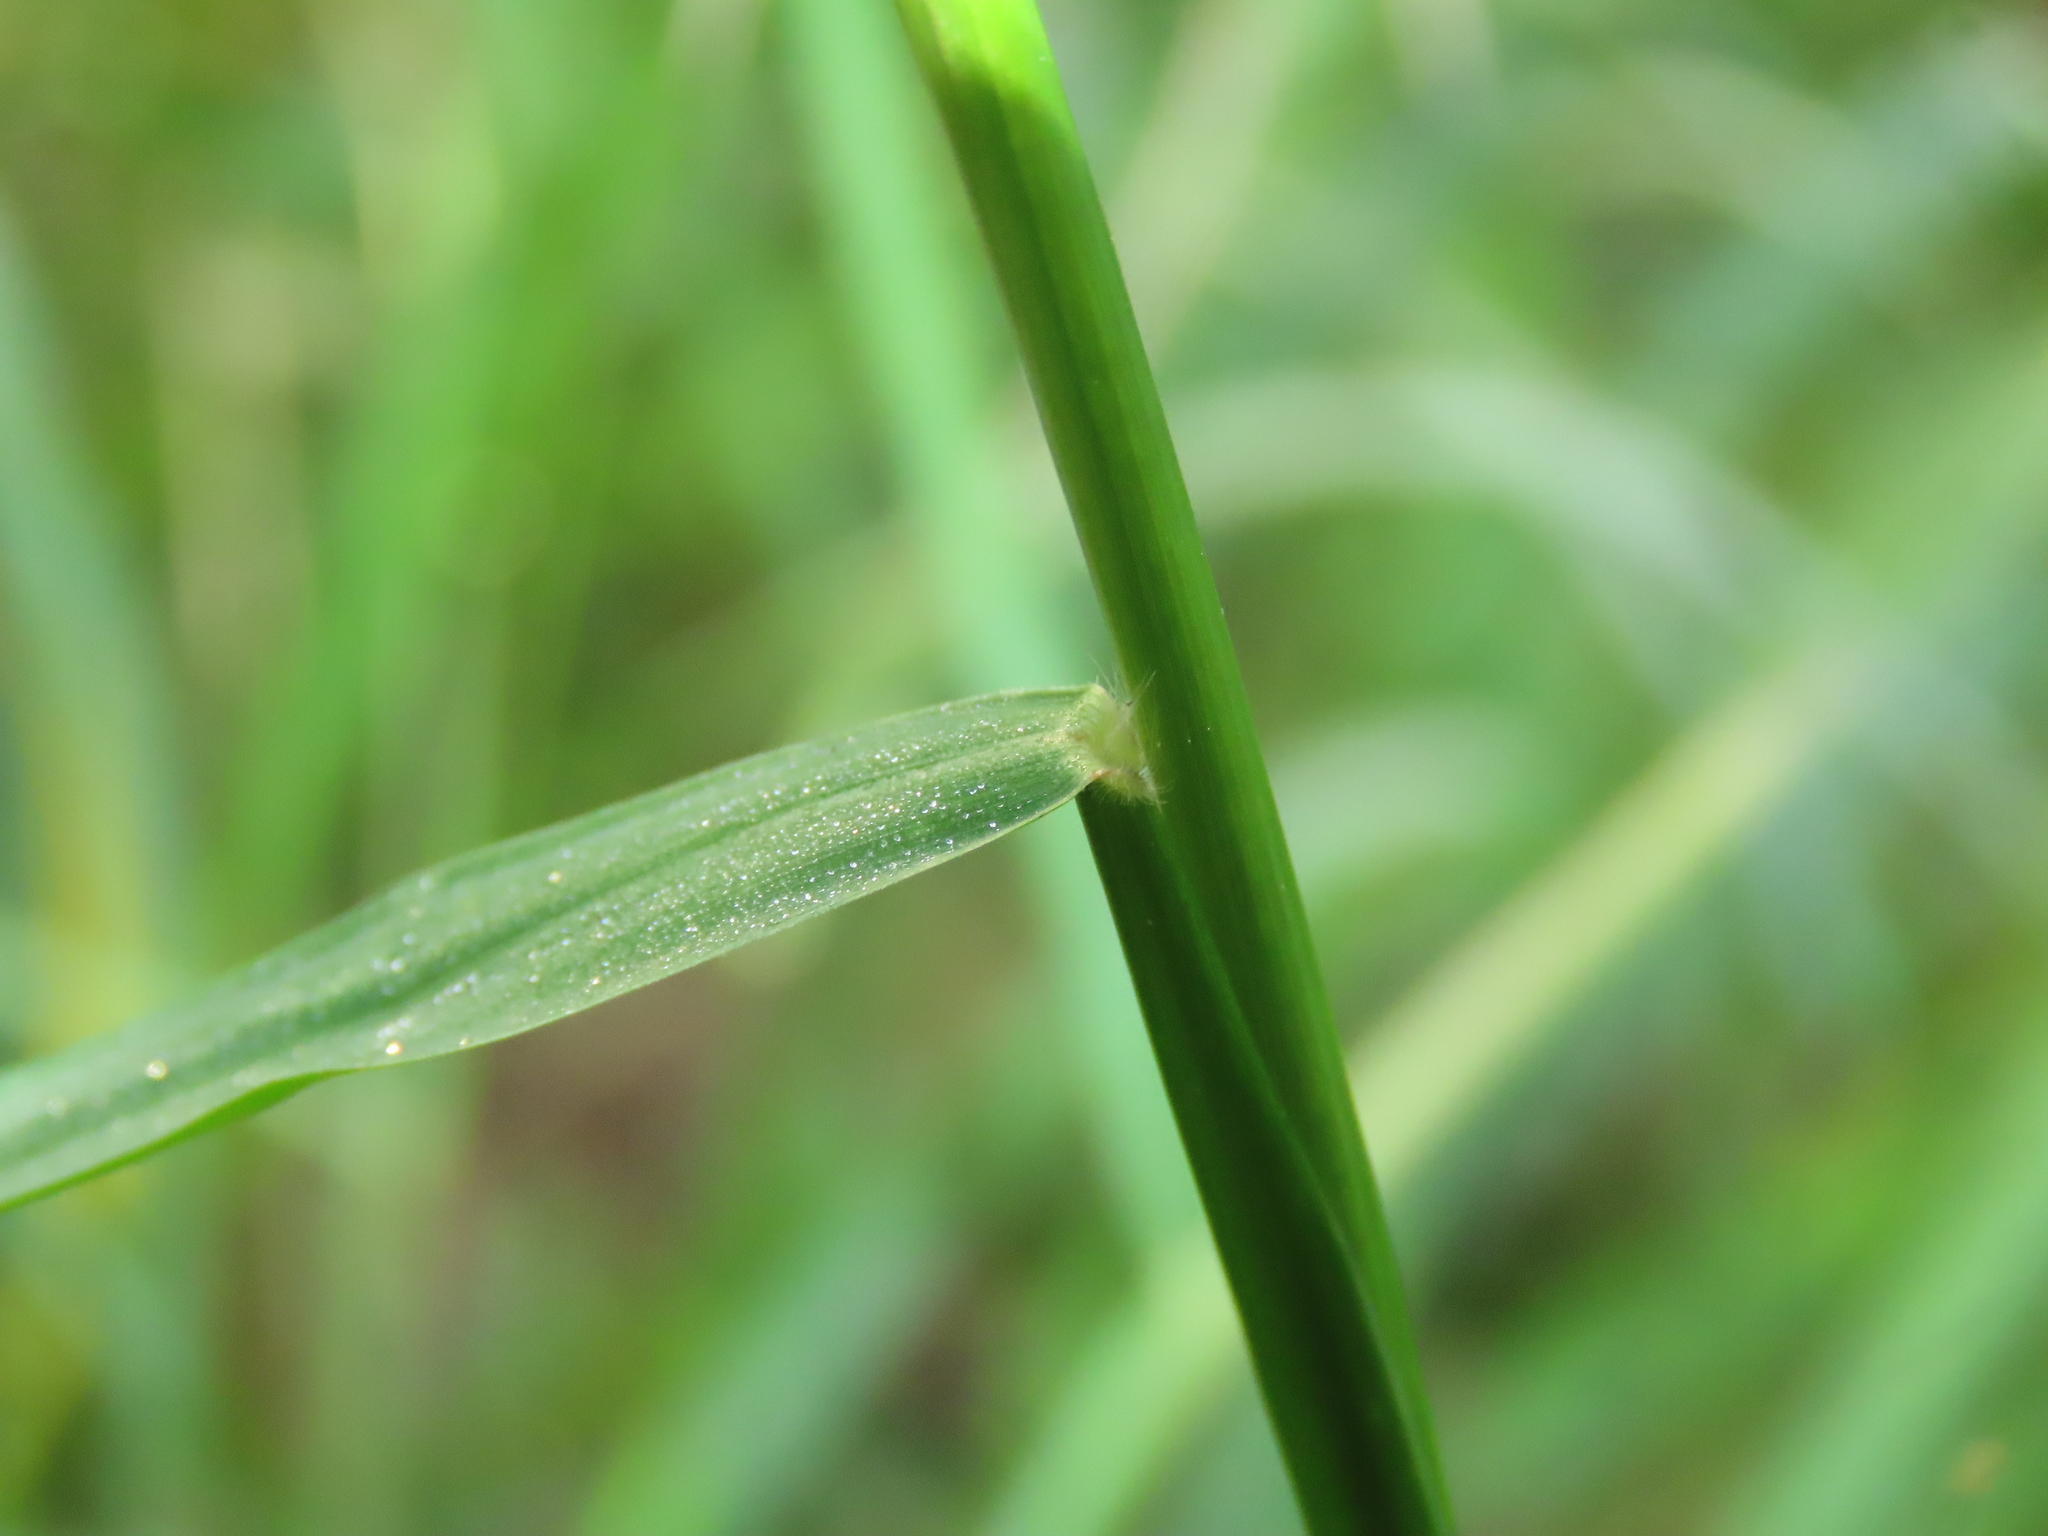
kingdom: Plantae
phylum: Tracheophyta
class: Liliopsida
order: Poales
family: Poaceae
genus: Paspalum
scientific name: Paspalum conjugatum
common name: Hilograss
